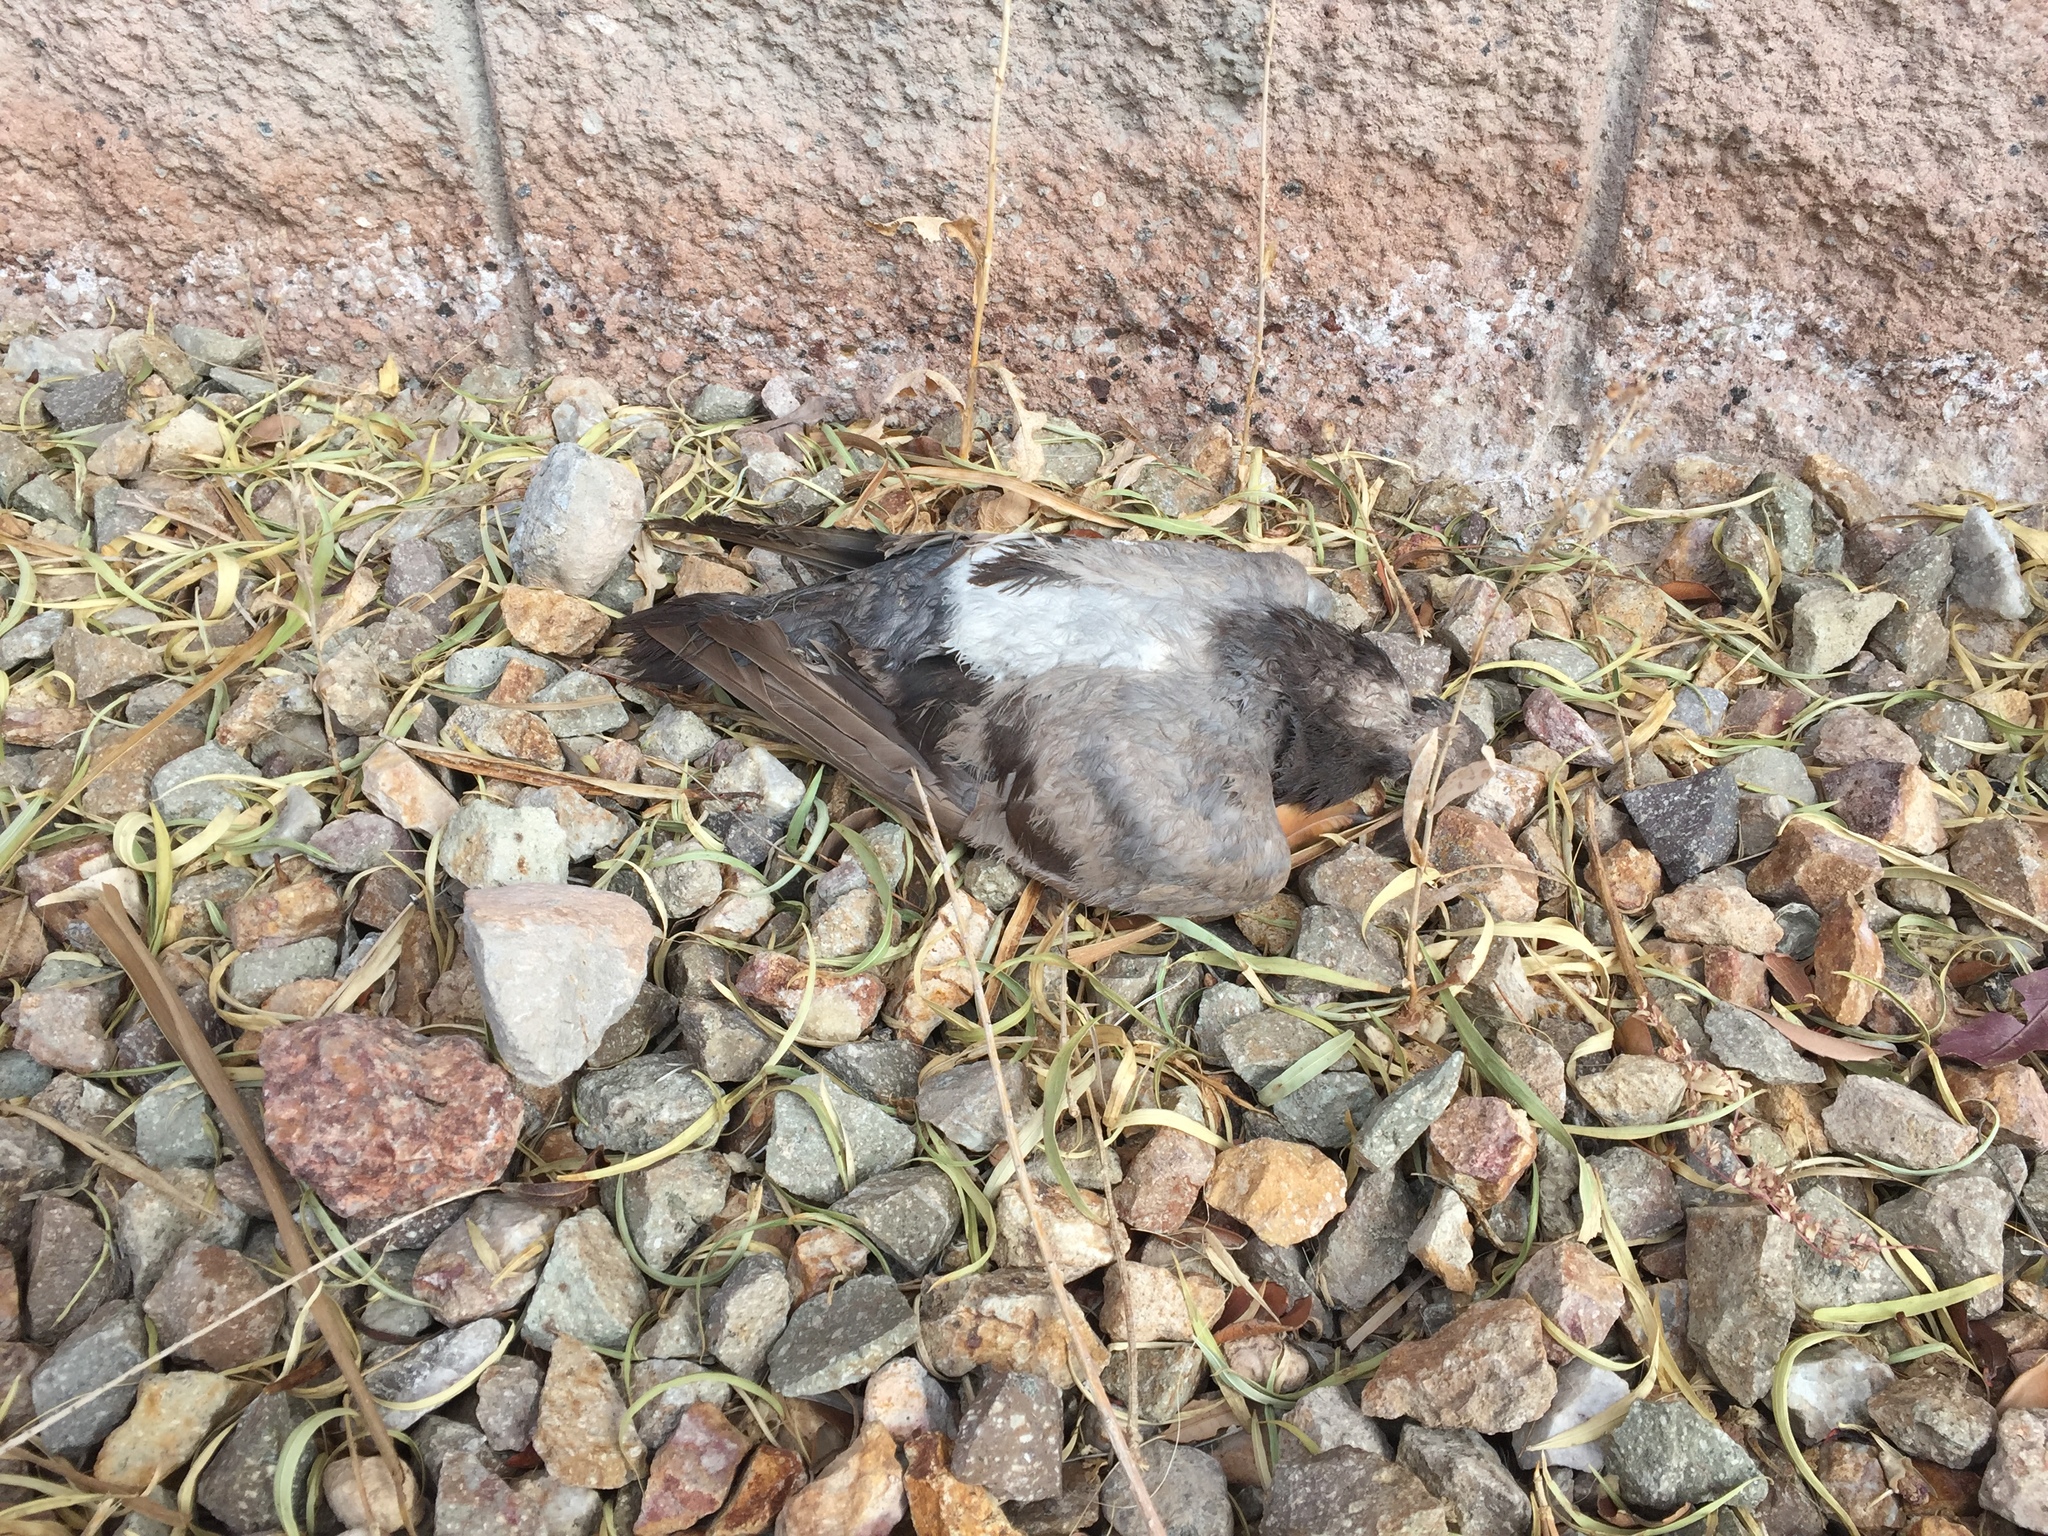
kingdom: Animalia
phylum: Chordata
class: Aves
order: Columbiformes
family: Columbidae
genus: Columba
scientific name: Columba livia
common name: Rock pigeon
